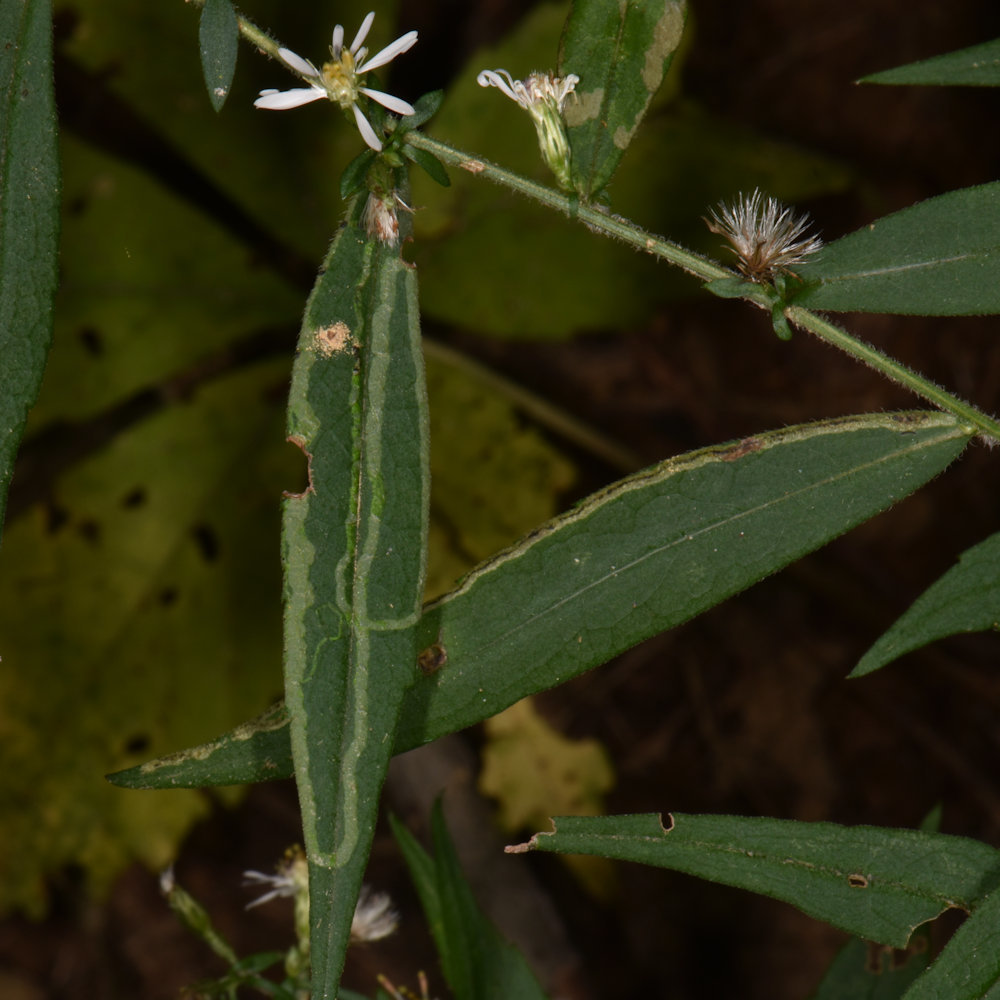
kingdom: Animalia
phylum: Arthropoda
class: Insecta
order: Diptera
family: Agromyzidae
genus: Ophiomyia
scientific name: Ophiomyia parda
